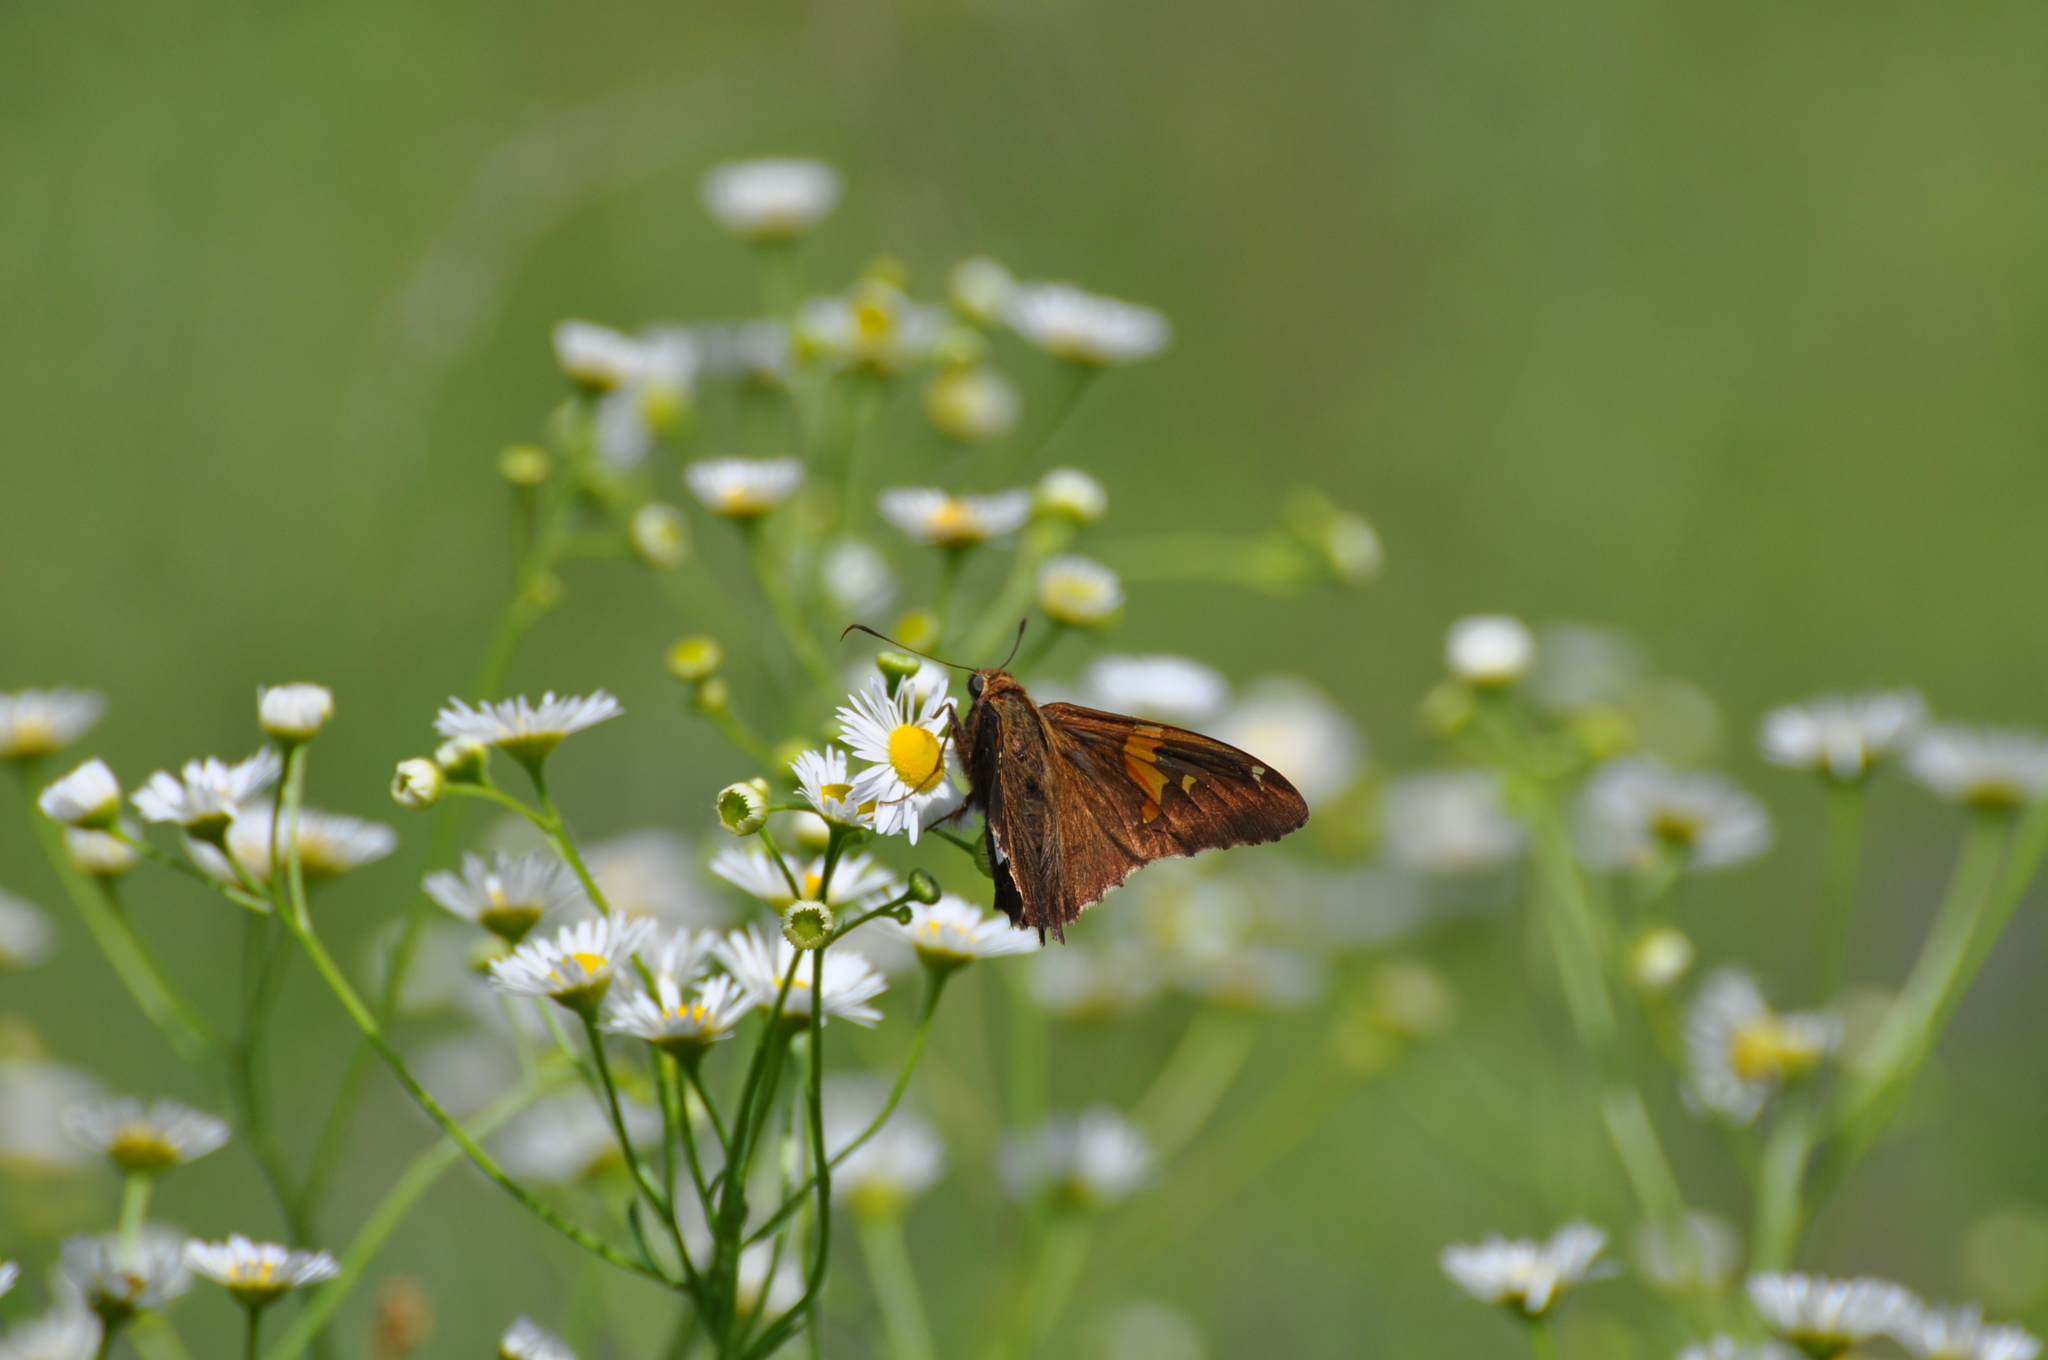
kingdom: Animalia
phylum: Arthropoda
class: Insecta
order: Lepidoptera
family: Hesperiidae
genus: Epargyreus
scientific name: Epargyreus clarus
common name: Silver-spotted skipper
